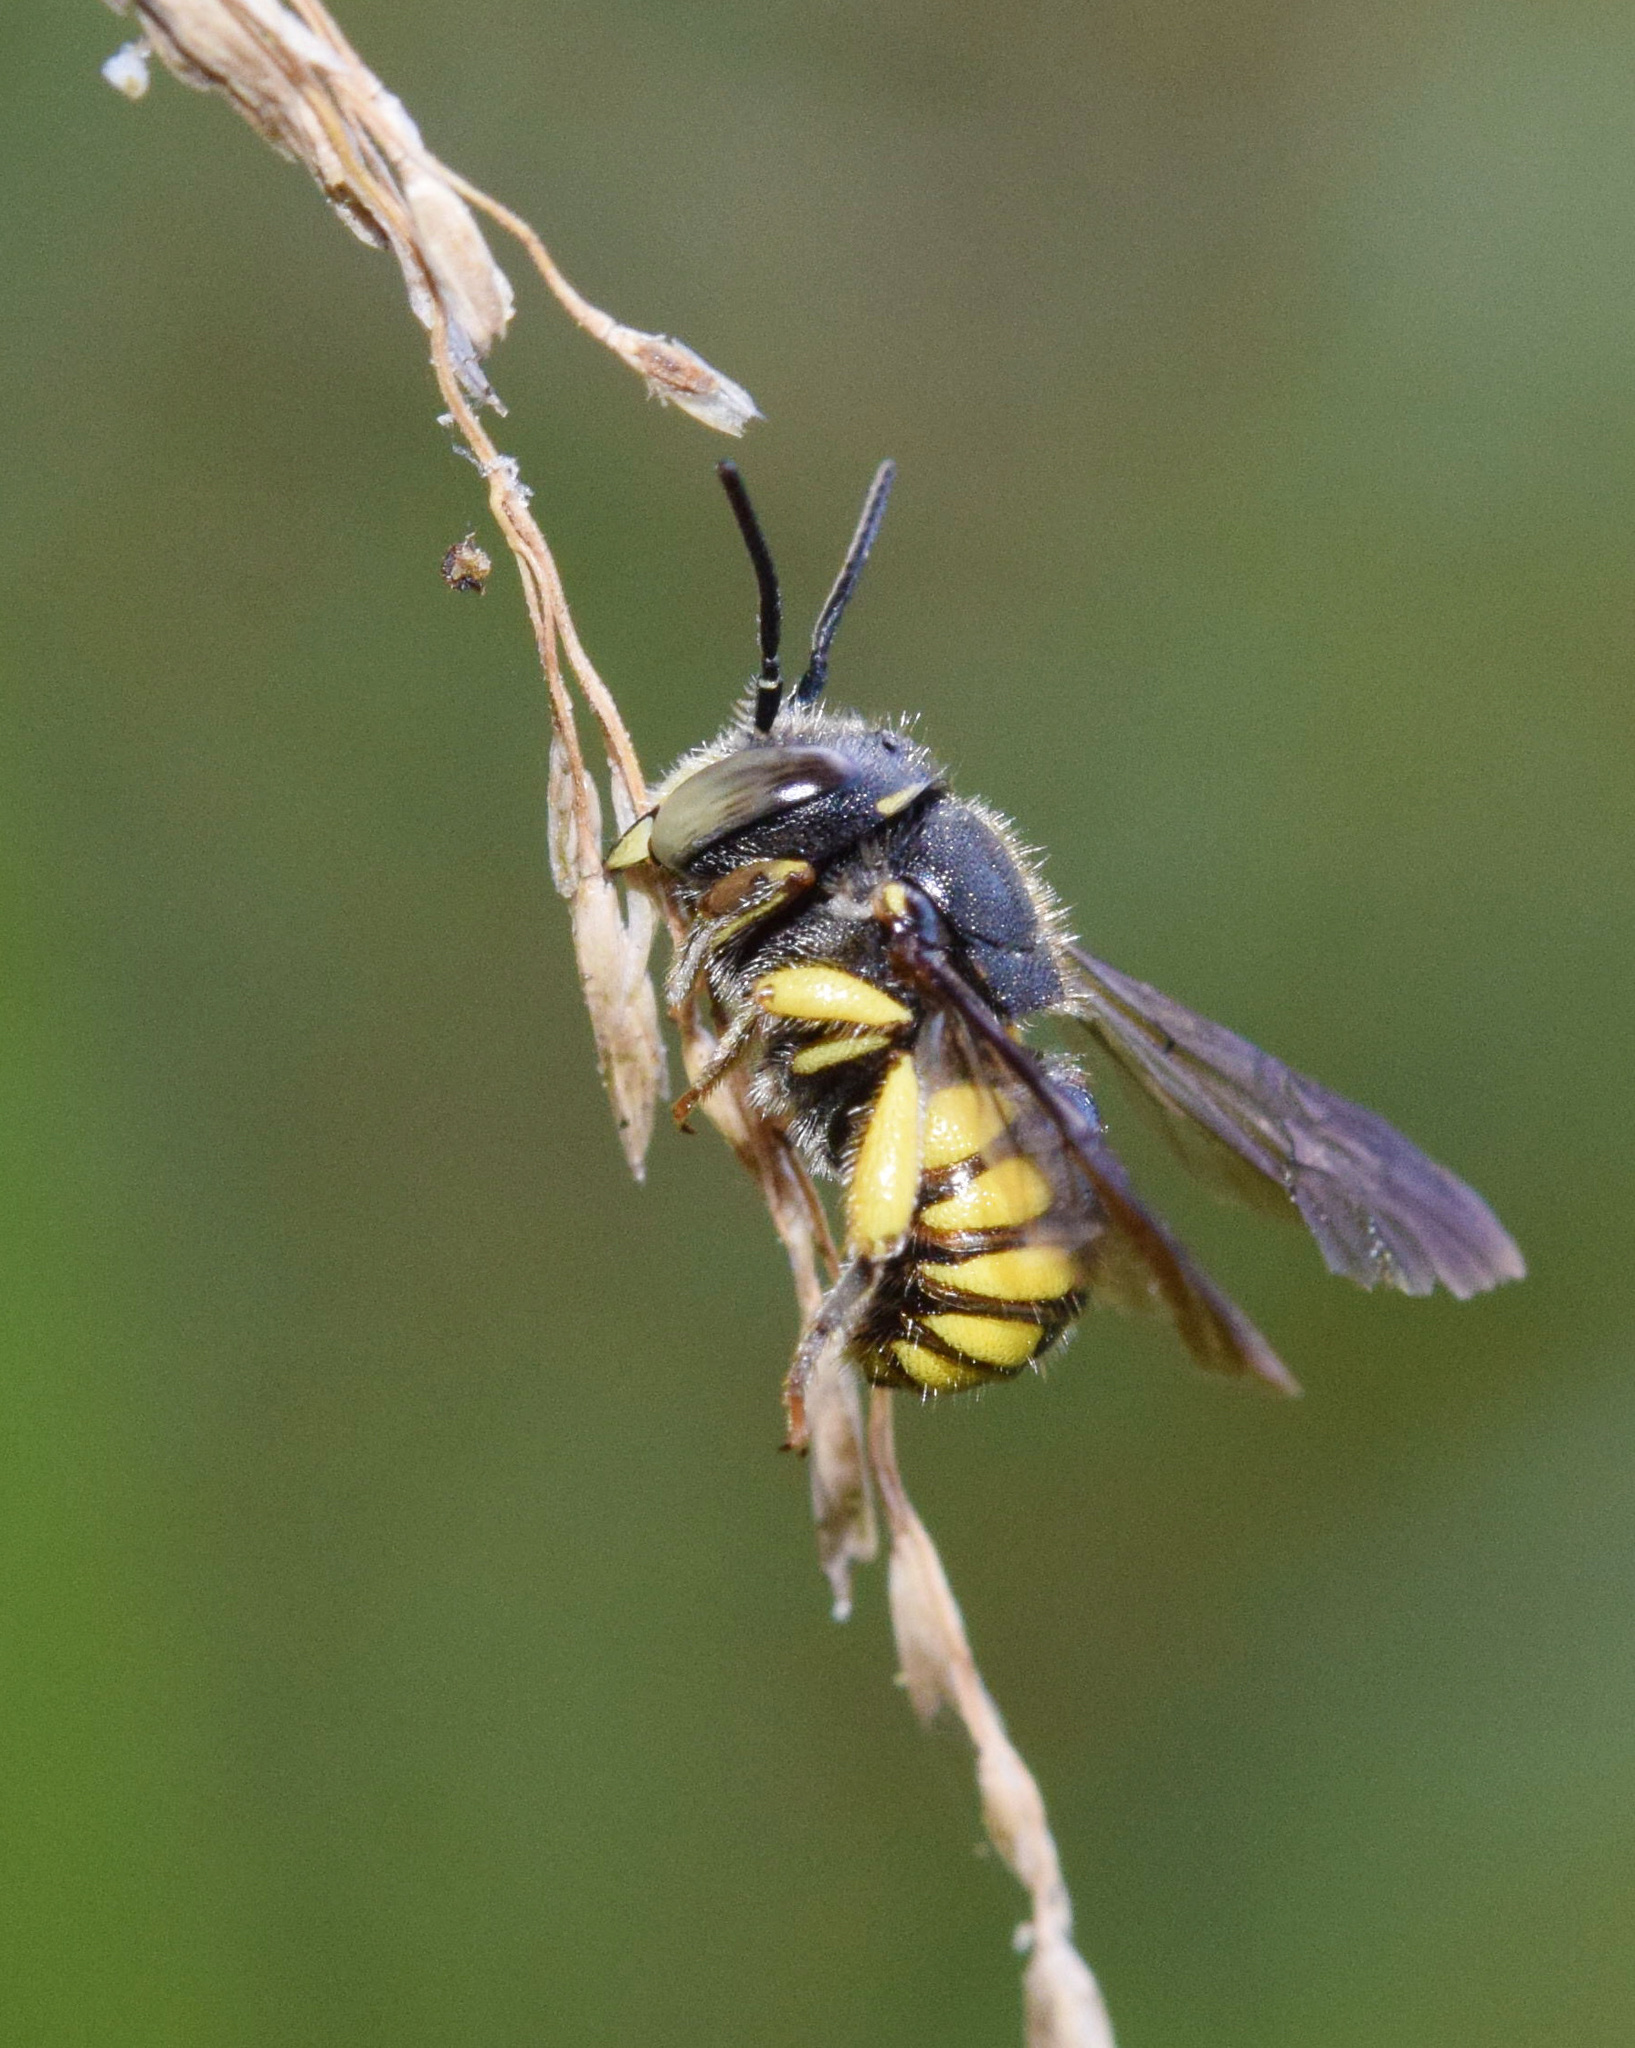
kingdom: Animalia
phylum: Arthropoda
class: Insecta
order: Hymenoptera
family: Megachilidae
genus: Pseudoanthidium
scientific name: Pseudoanthidium truncatum
